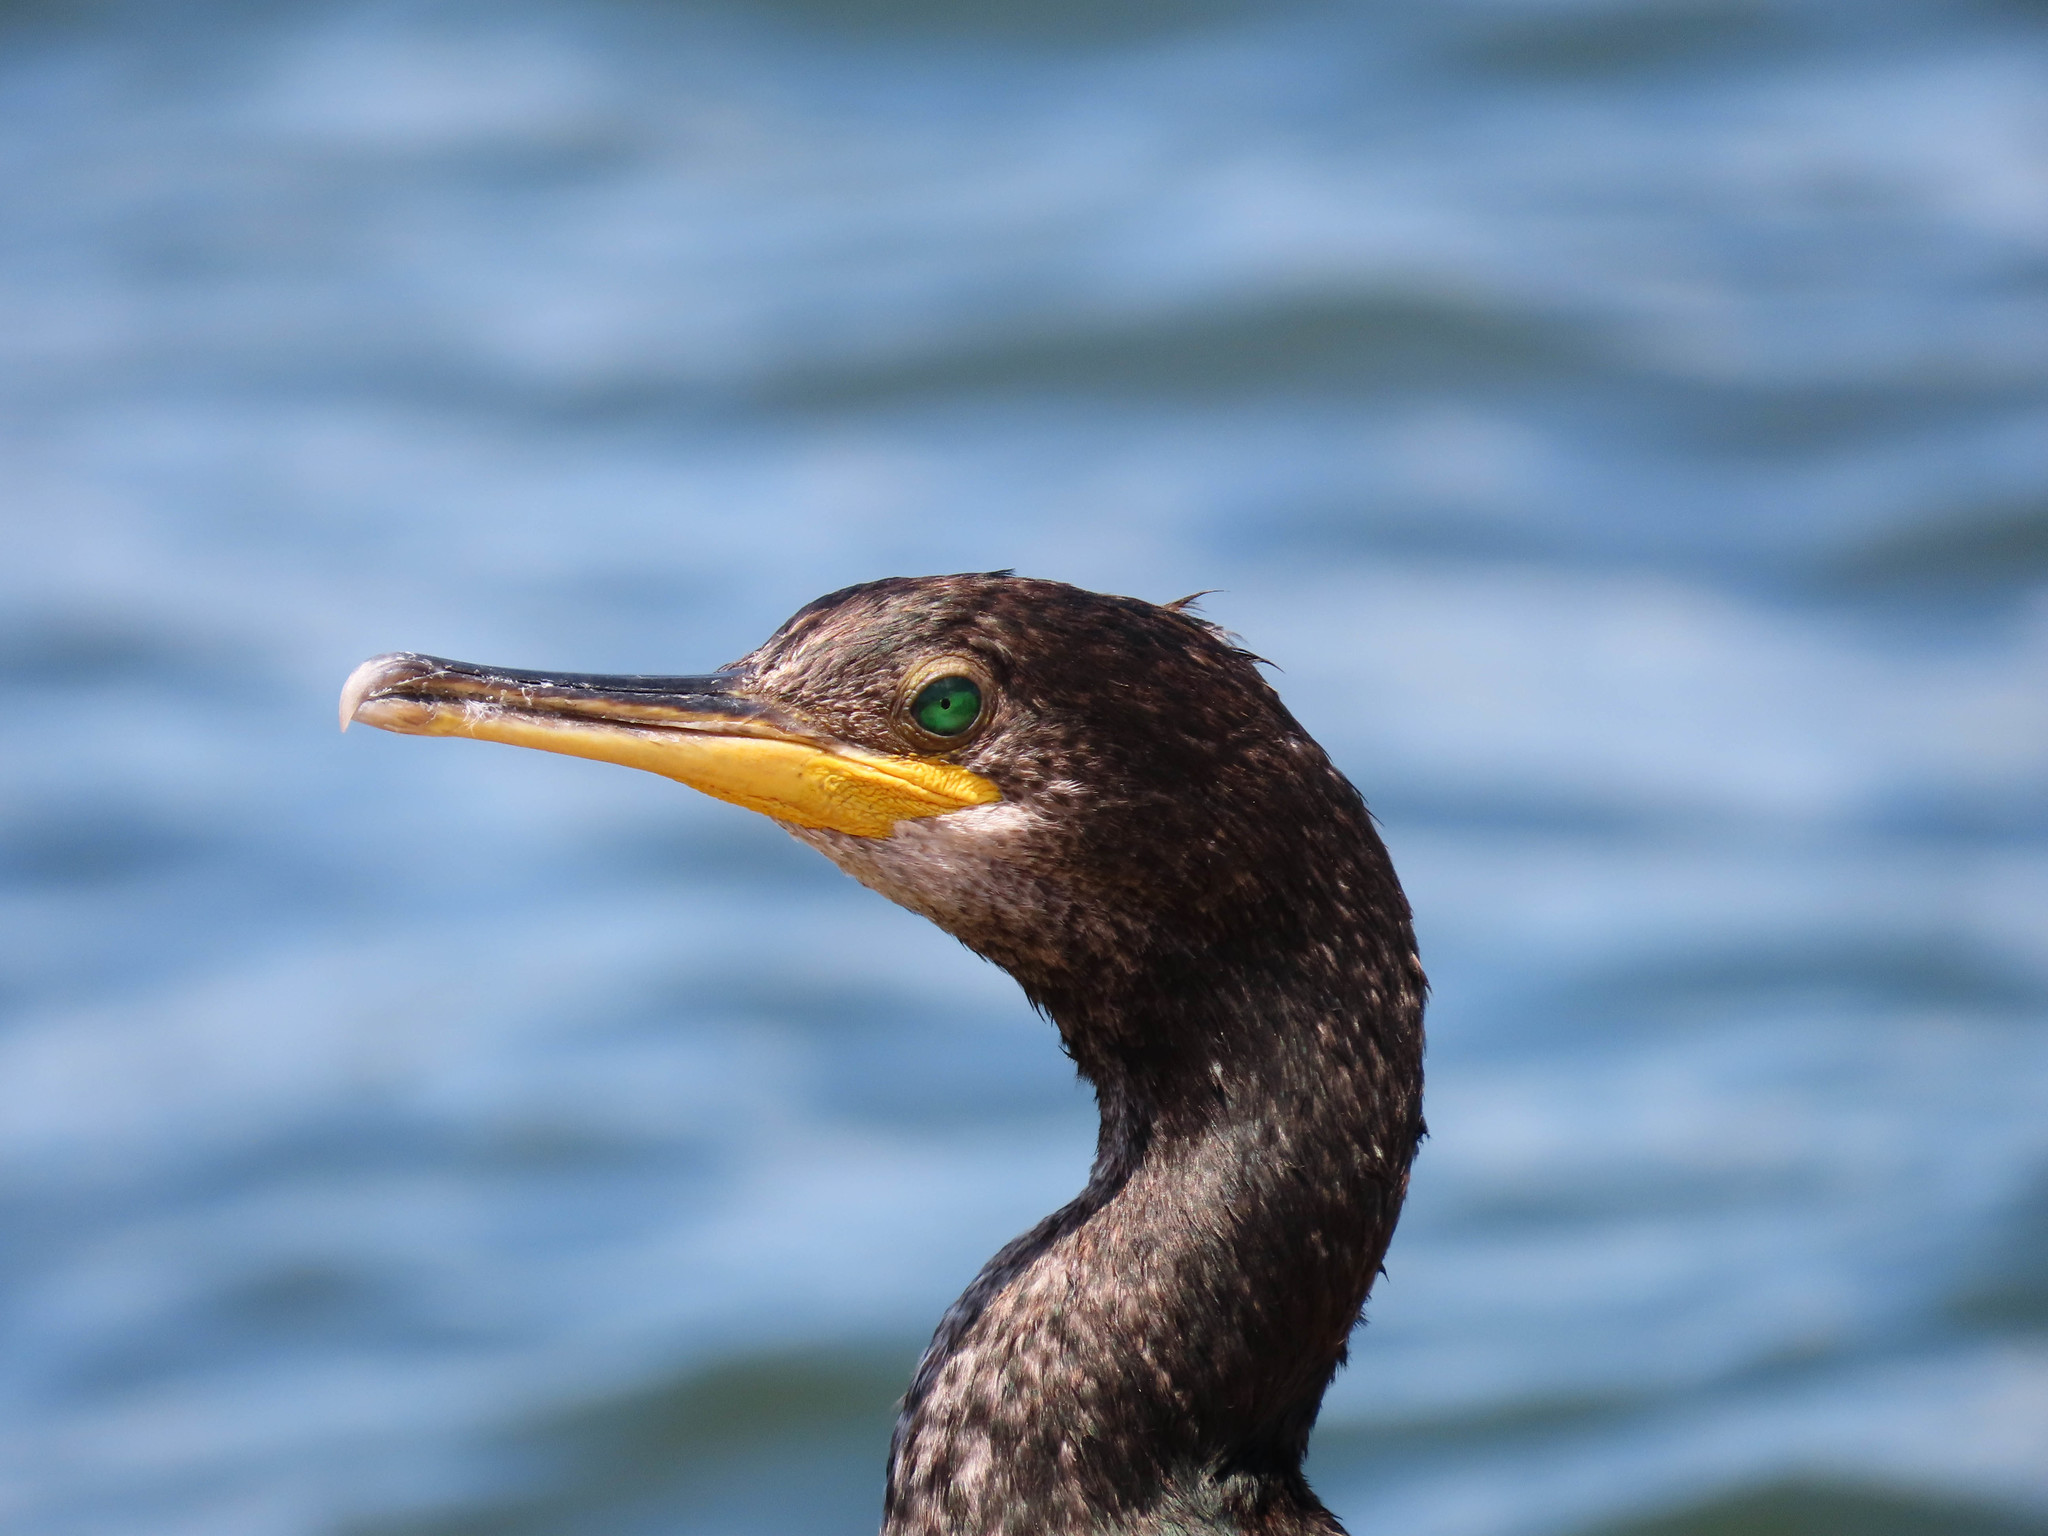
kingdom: Animalia
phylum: Chordata
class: Aves
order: Suliformes
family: Phalacrocoracidae
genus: Phalacrocorax
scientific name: Phalacrocorax aristotelis
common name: European shag
